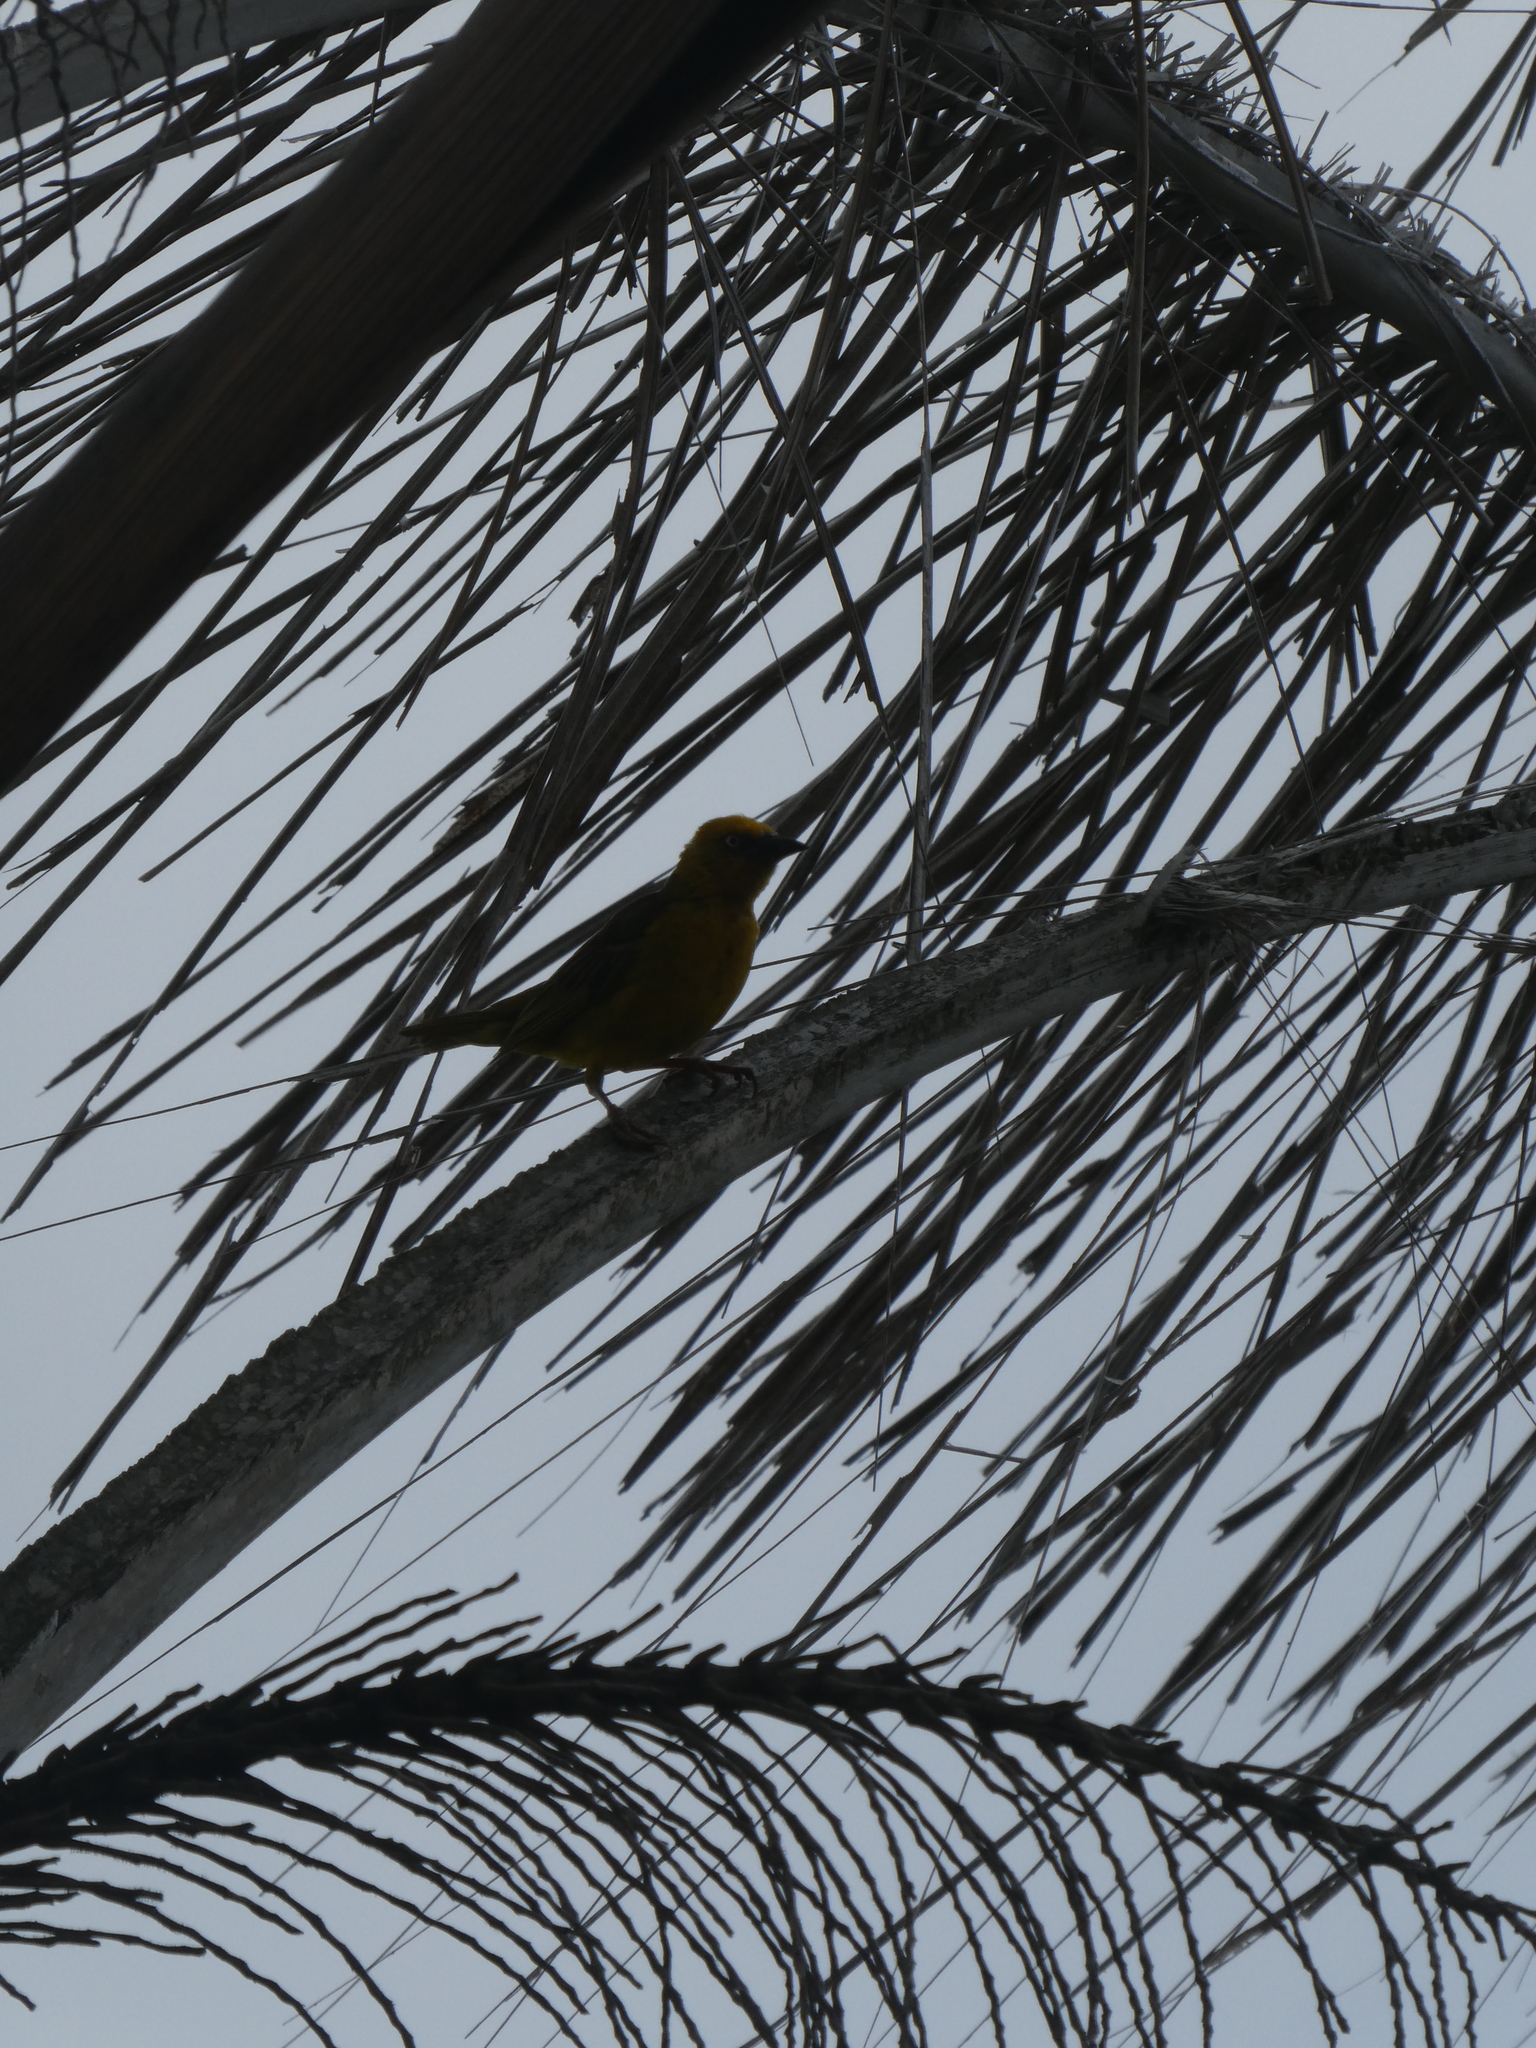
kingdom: Animalia
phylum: Chordata
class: Aves
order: Passeriformes
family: Ploceidae
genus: Ploceus
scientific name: Ploceus capensis
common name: Cape weaver
